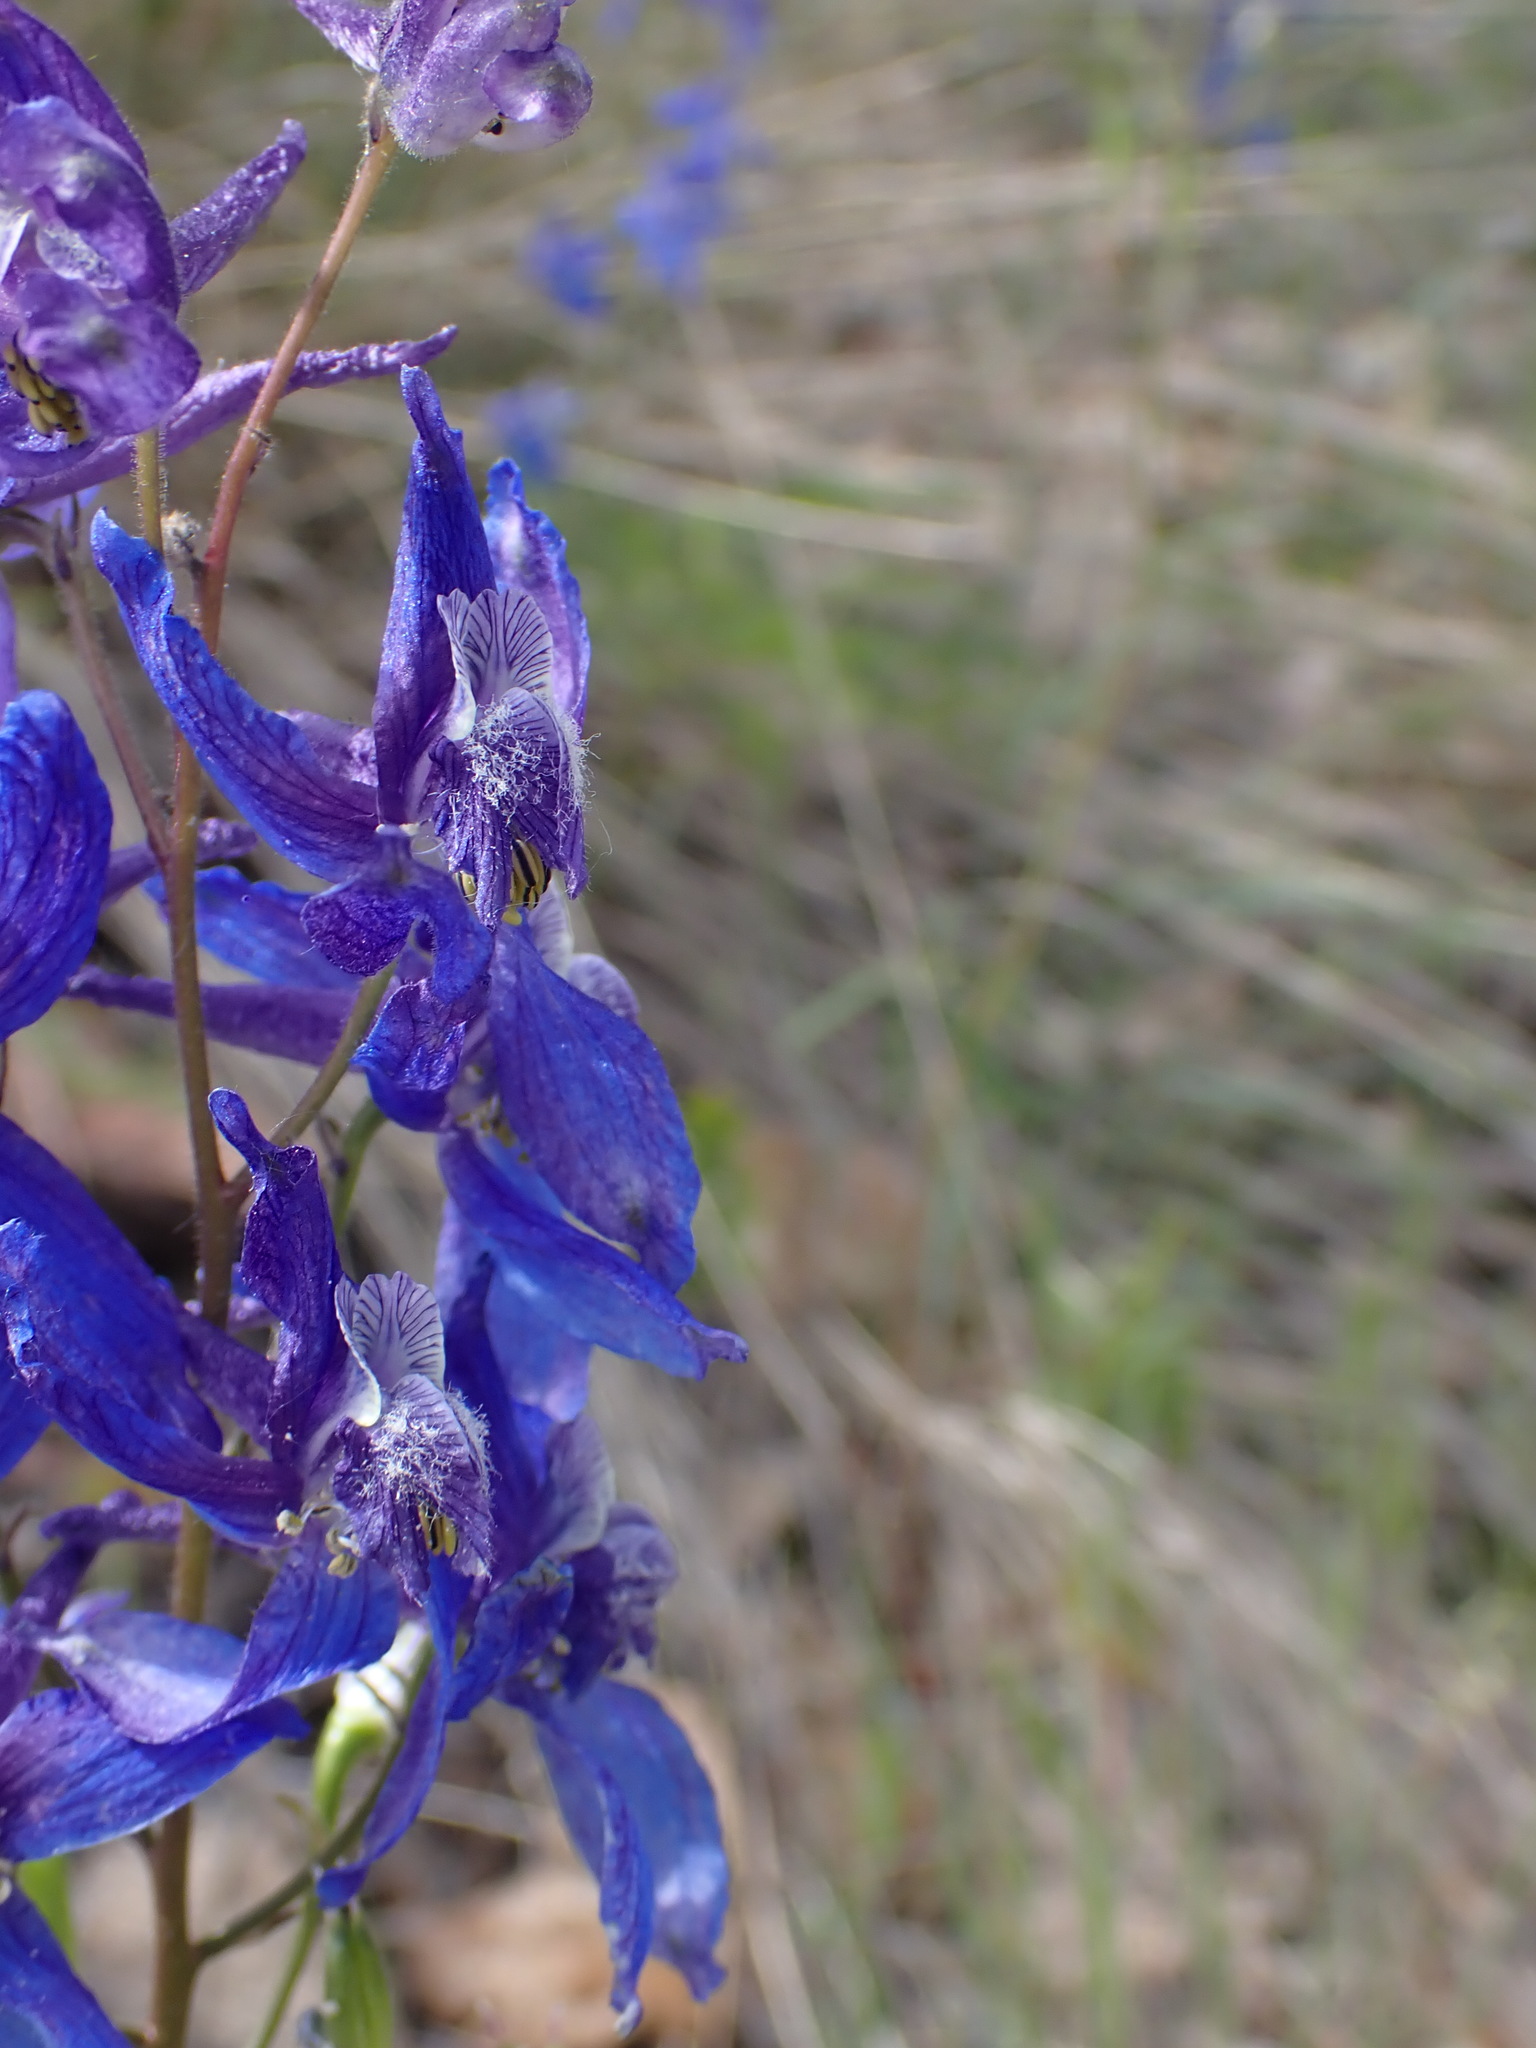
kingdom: Plantae
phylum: Tracheophyta
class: Magnoliopsida
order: Ranunculales
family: Ranunculaceae
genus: Delphinium
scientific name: Delphinium nuttallianum
